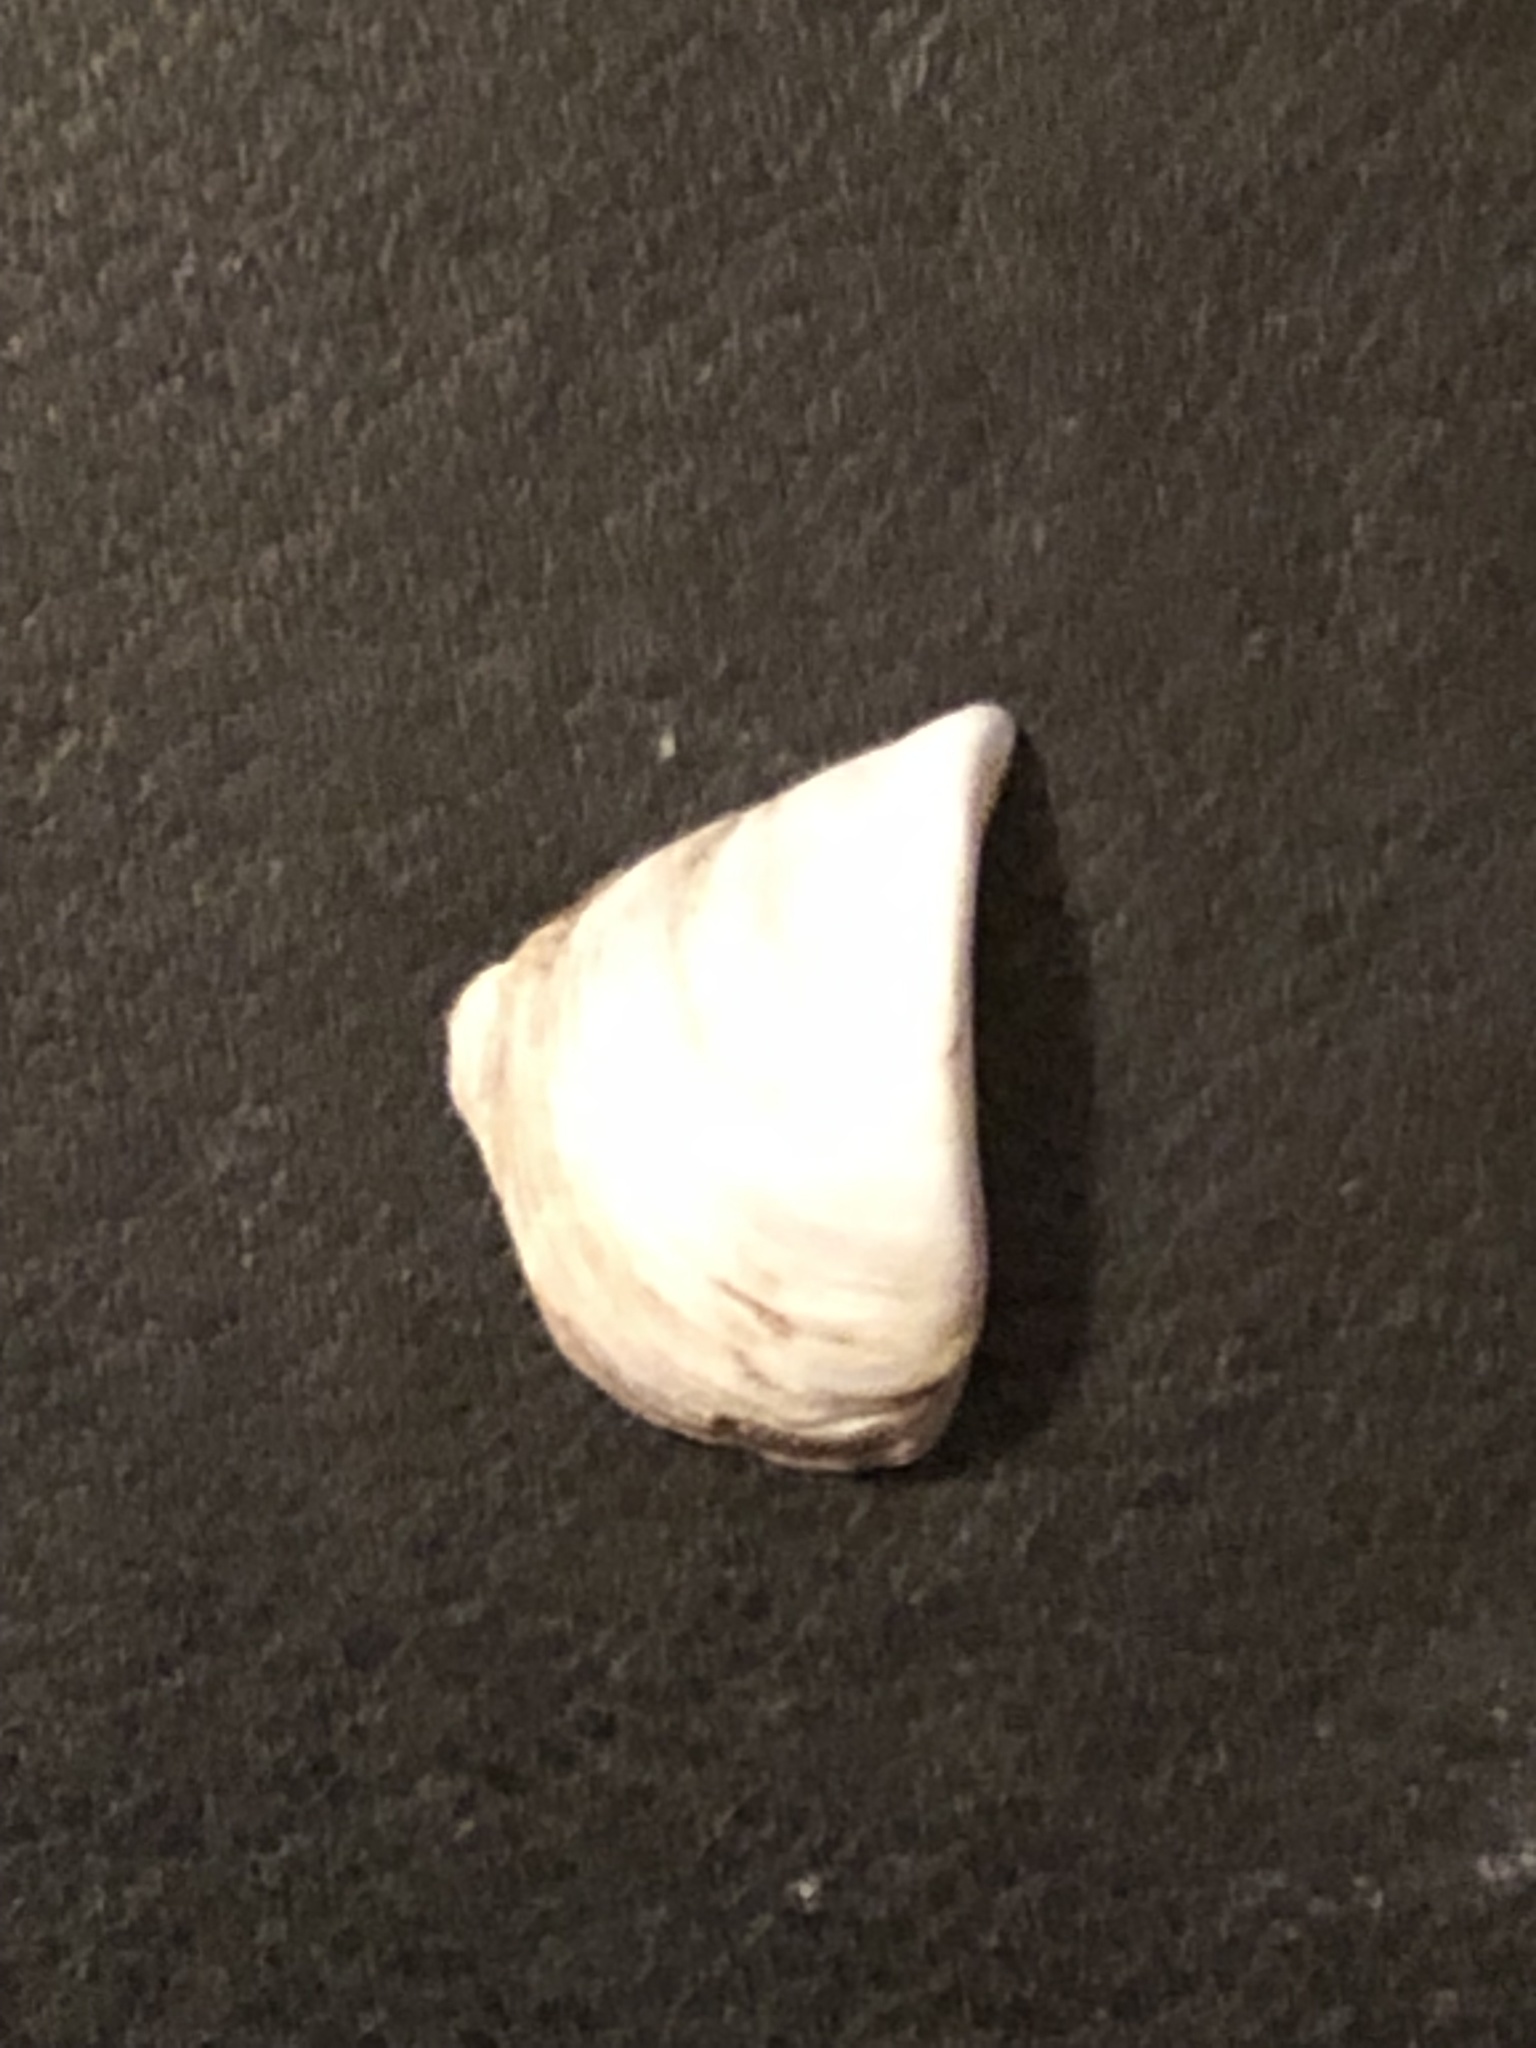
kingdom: Animalia
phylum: Mollusca
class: Bivalvia
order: Myida
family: Dreissenidae
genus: Dreissena
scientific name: Dreissena polymorpha
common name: Zebra mussel
